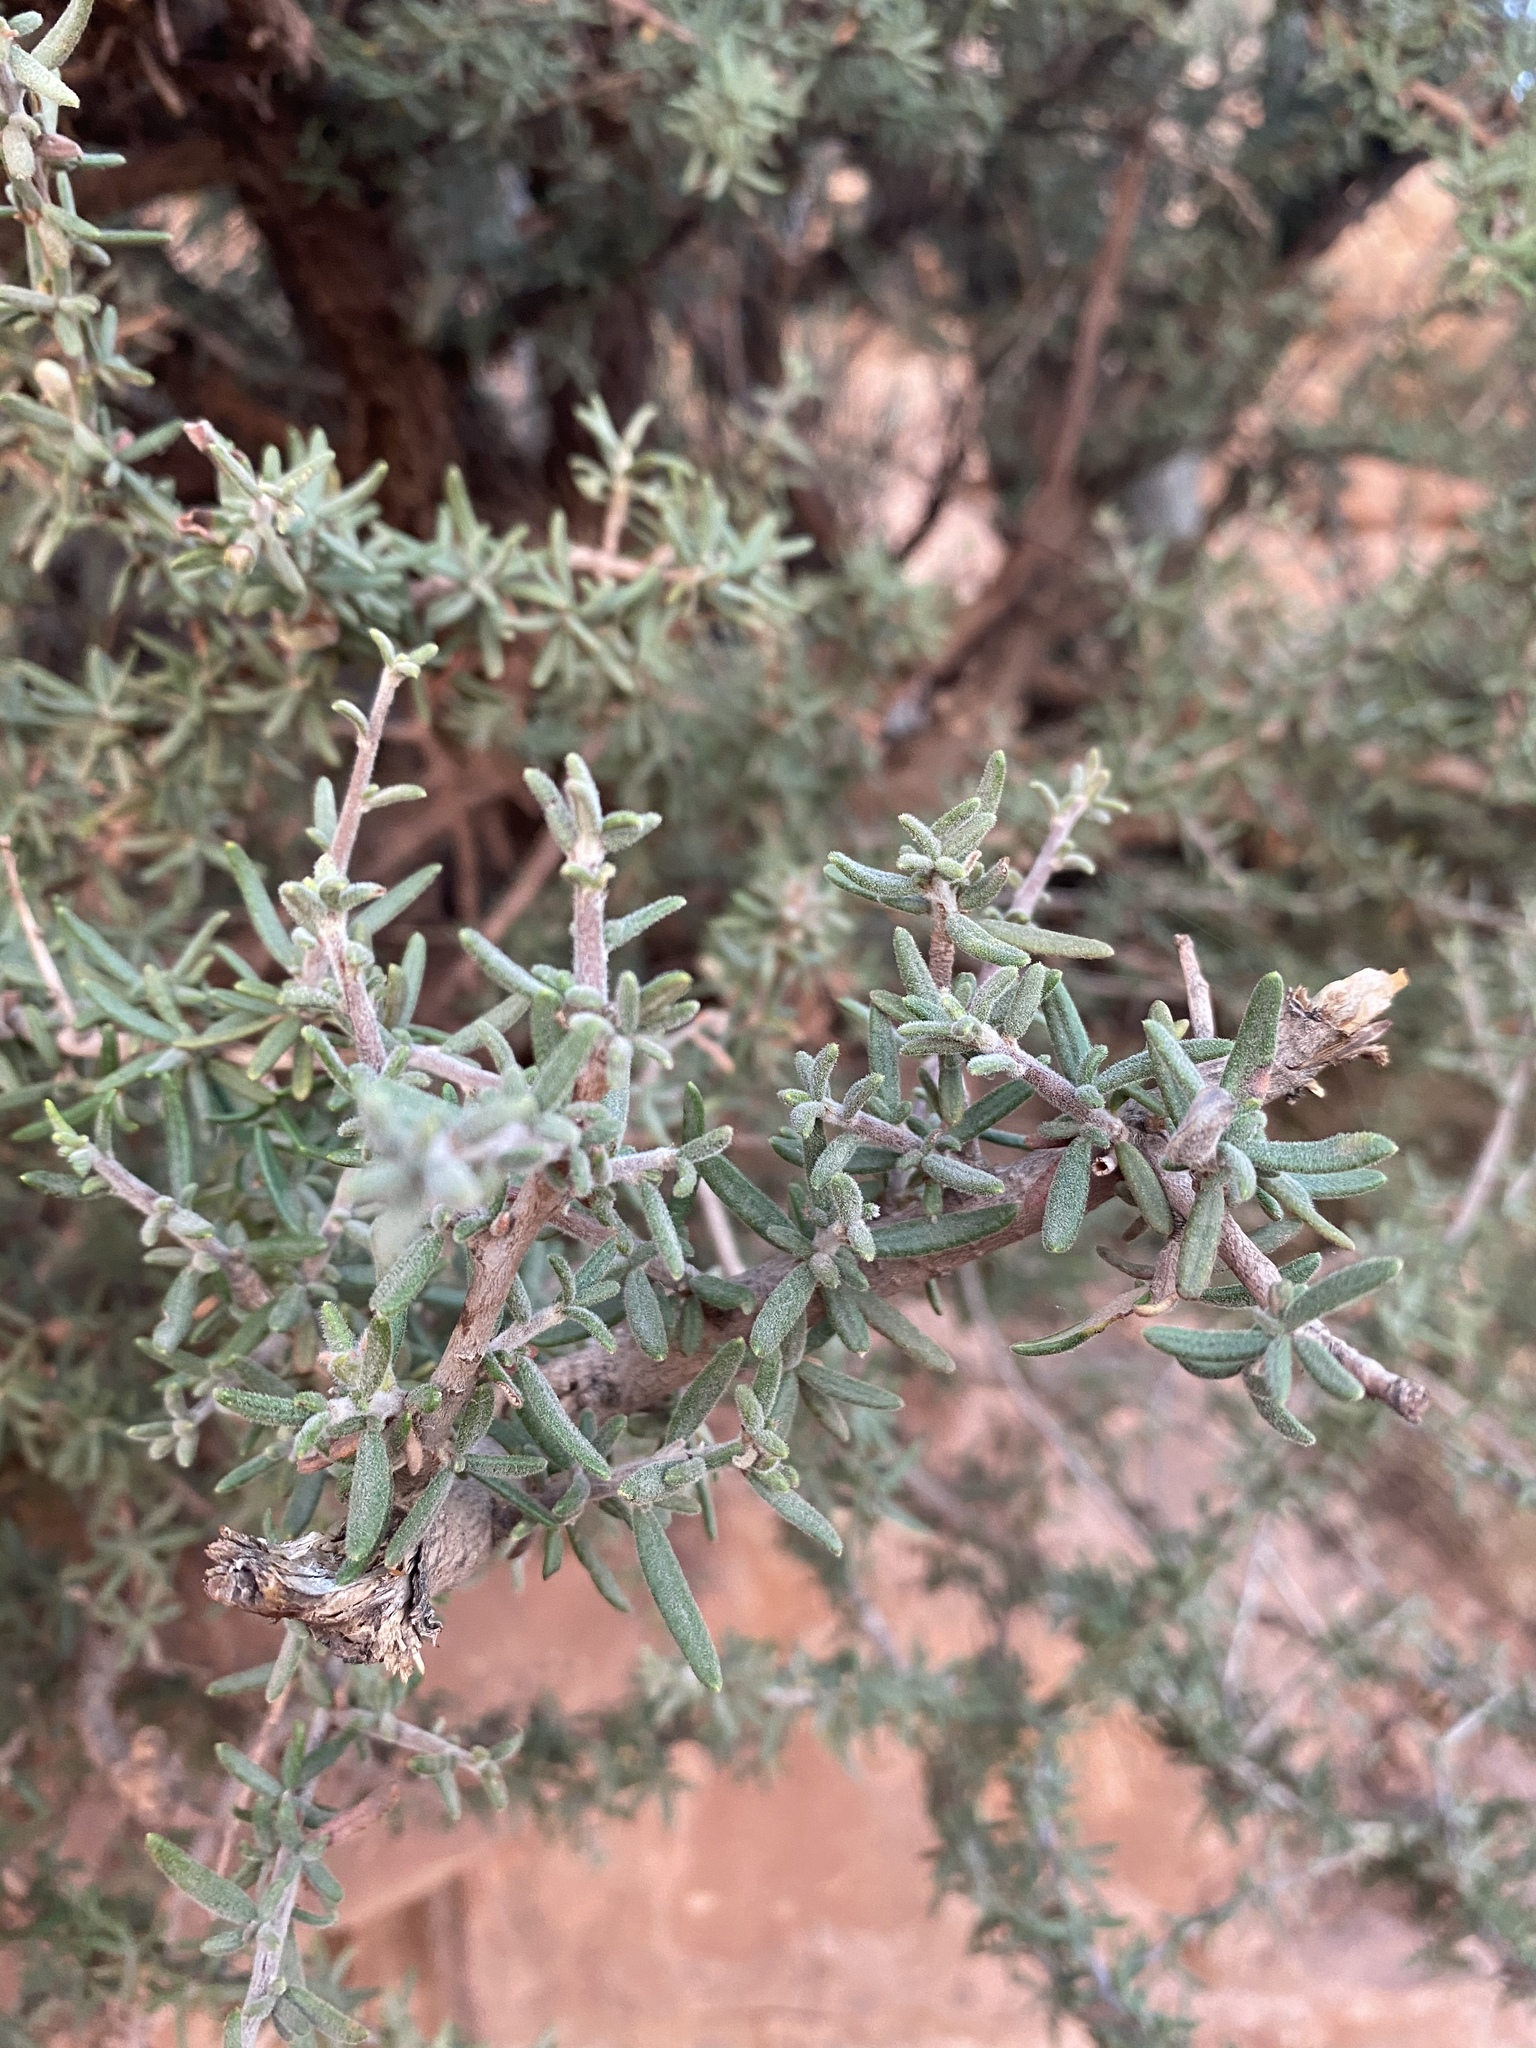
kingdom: Plantae
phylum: Tracheophyta
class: Magnoliopsida
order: Rosales
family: Rosaceae
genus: Cercocarpus
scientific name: Cercocarpus intricatus
